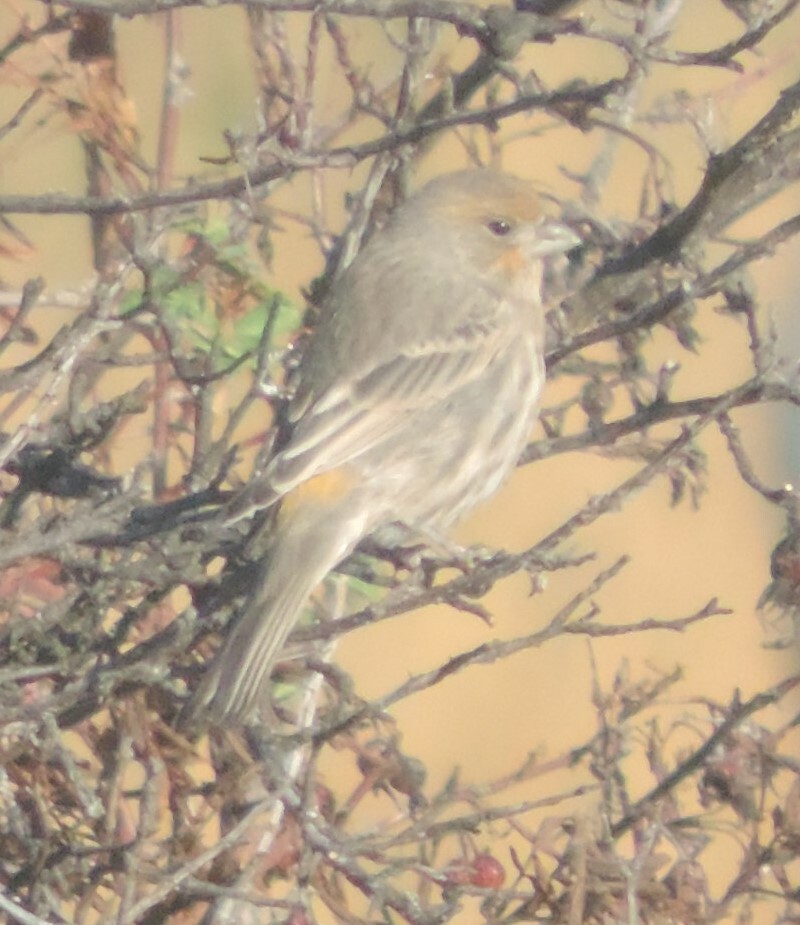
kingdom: Animalia
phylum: Chordata
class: Aves
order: Passeriformes
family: Fringillidae
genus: Haemorhous
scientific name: Haemorhous mexicanus
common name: House finch
